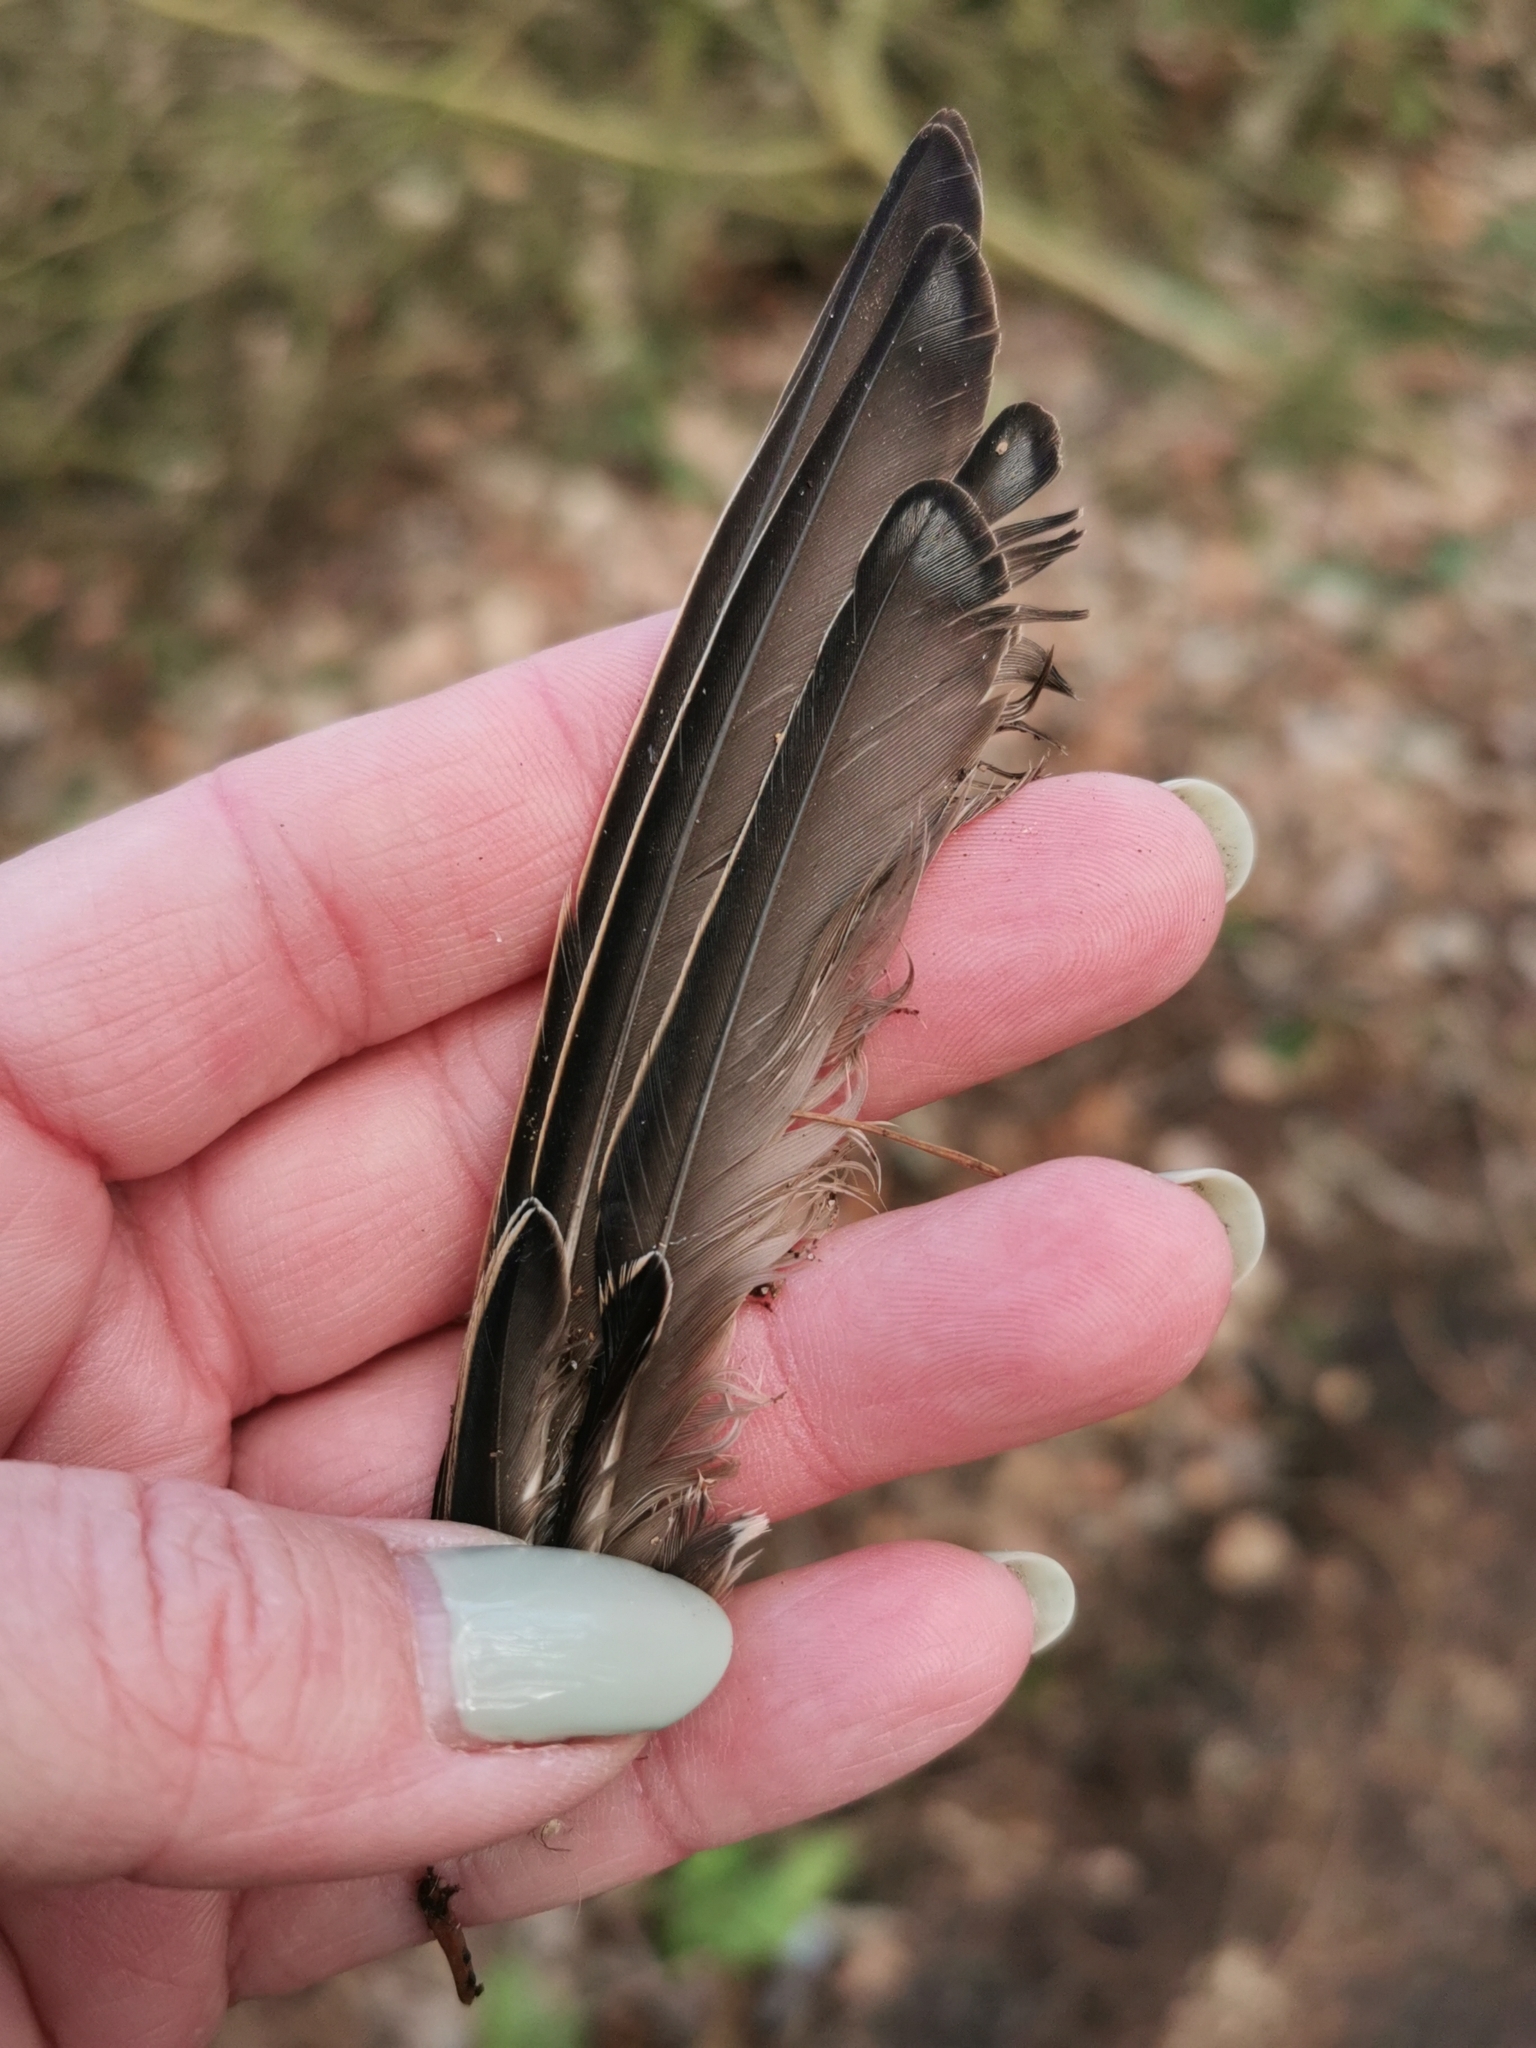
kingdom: Animalia
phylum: Chordata
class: Aves
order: Passeriformes
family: Sturnidae
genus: Sturnus
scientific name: Sturnus vulgaris
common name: Common starling
